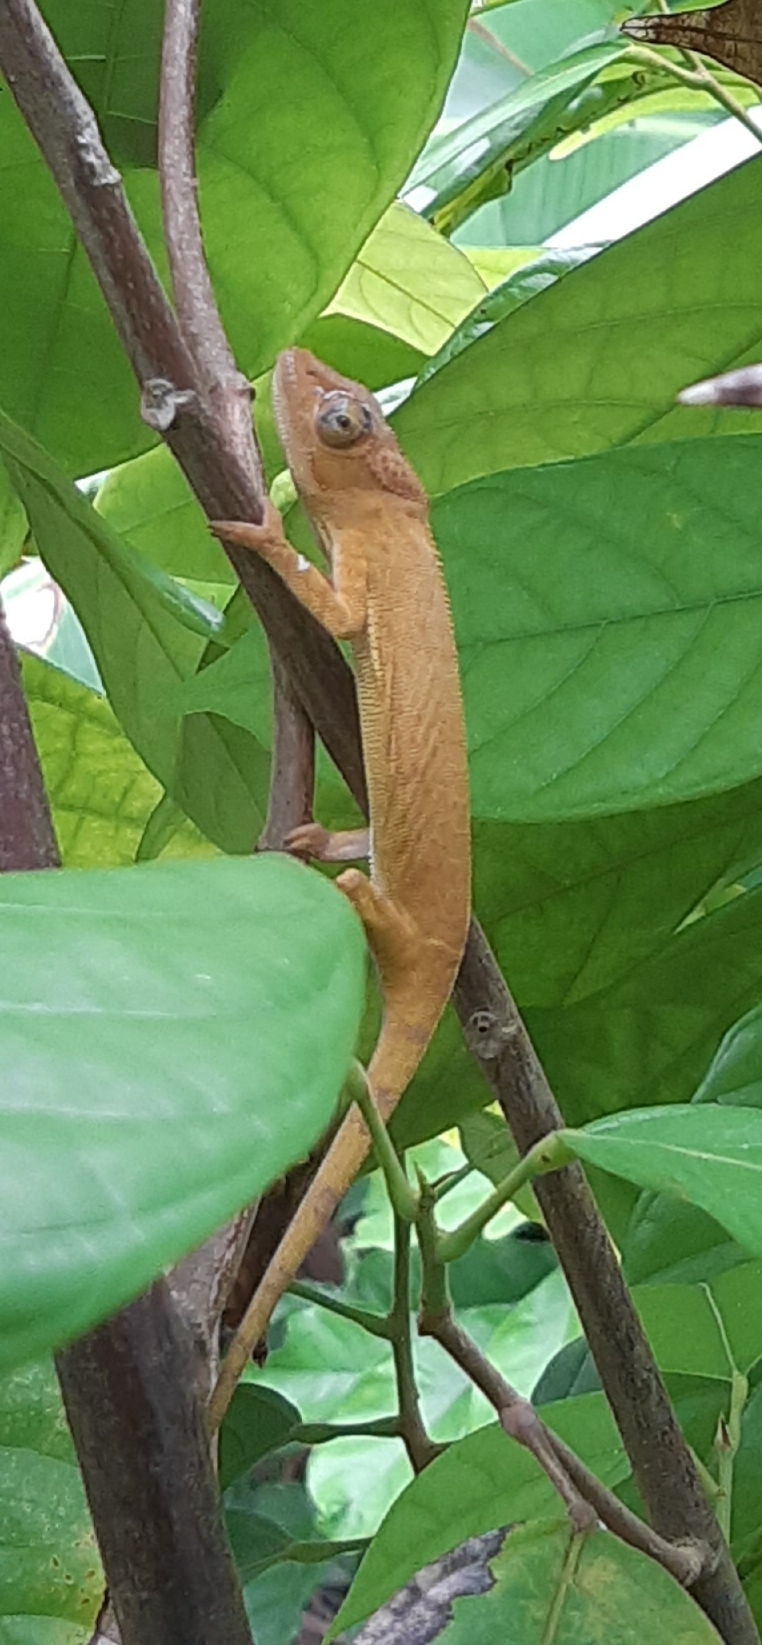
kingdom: Animalia
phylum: Chordata
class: Squamata
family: Chamaeleonidae
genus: Furcifer
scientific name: Furcifer polleni
